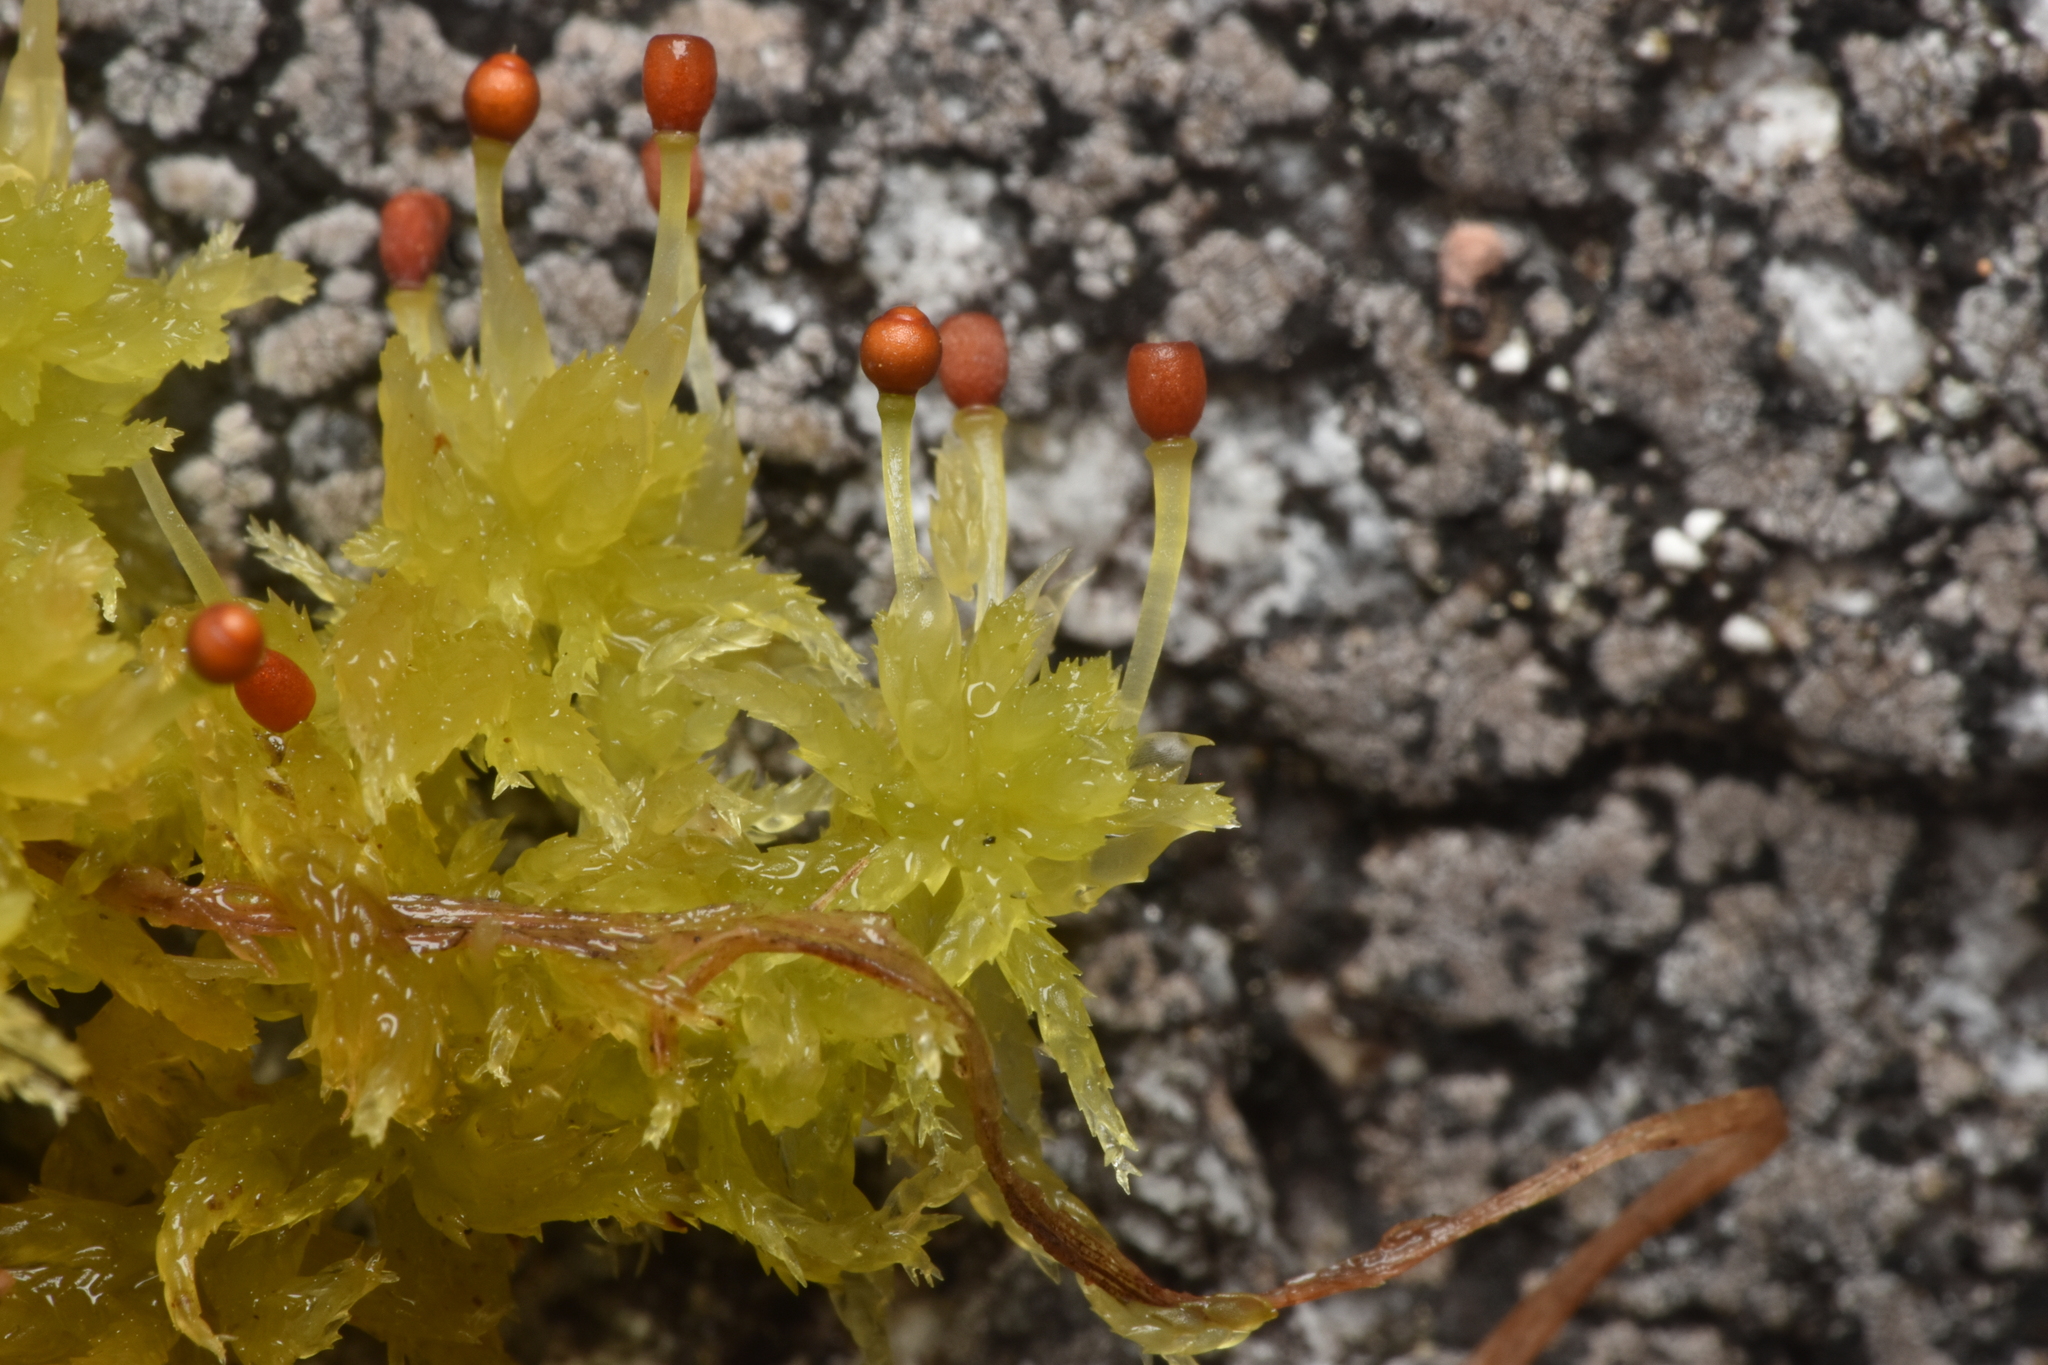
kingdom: Plantae
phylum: Bryophyta
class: Sphagnopsida
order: Sphagnales
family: Sphagnaceae
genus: Sphagnum
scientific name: Sphagnum tenellum
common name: Soft bog-moss
